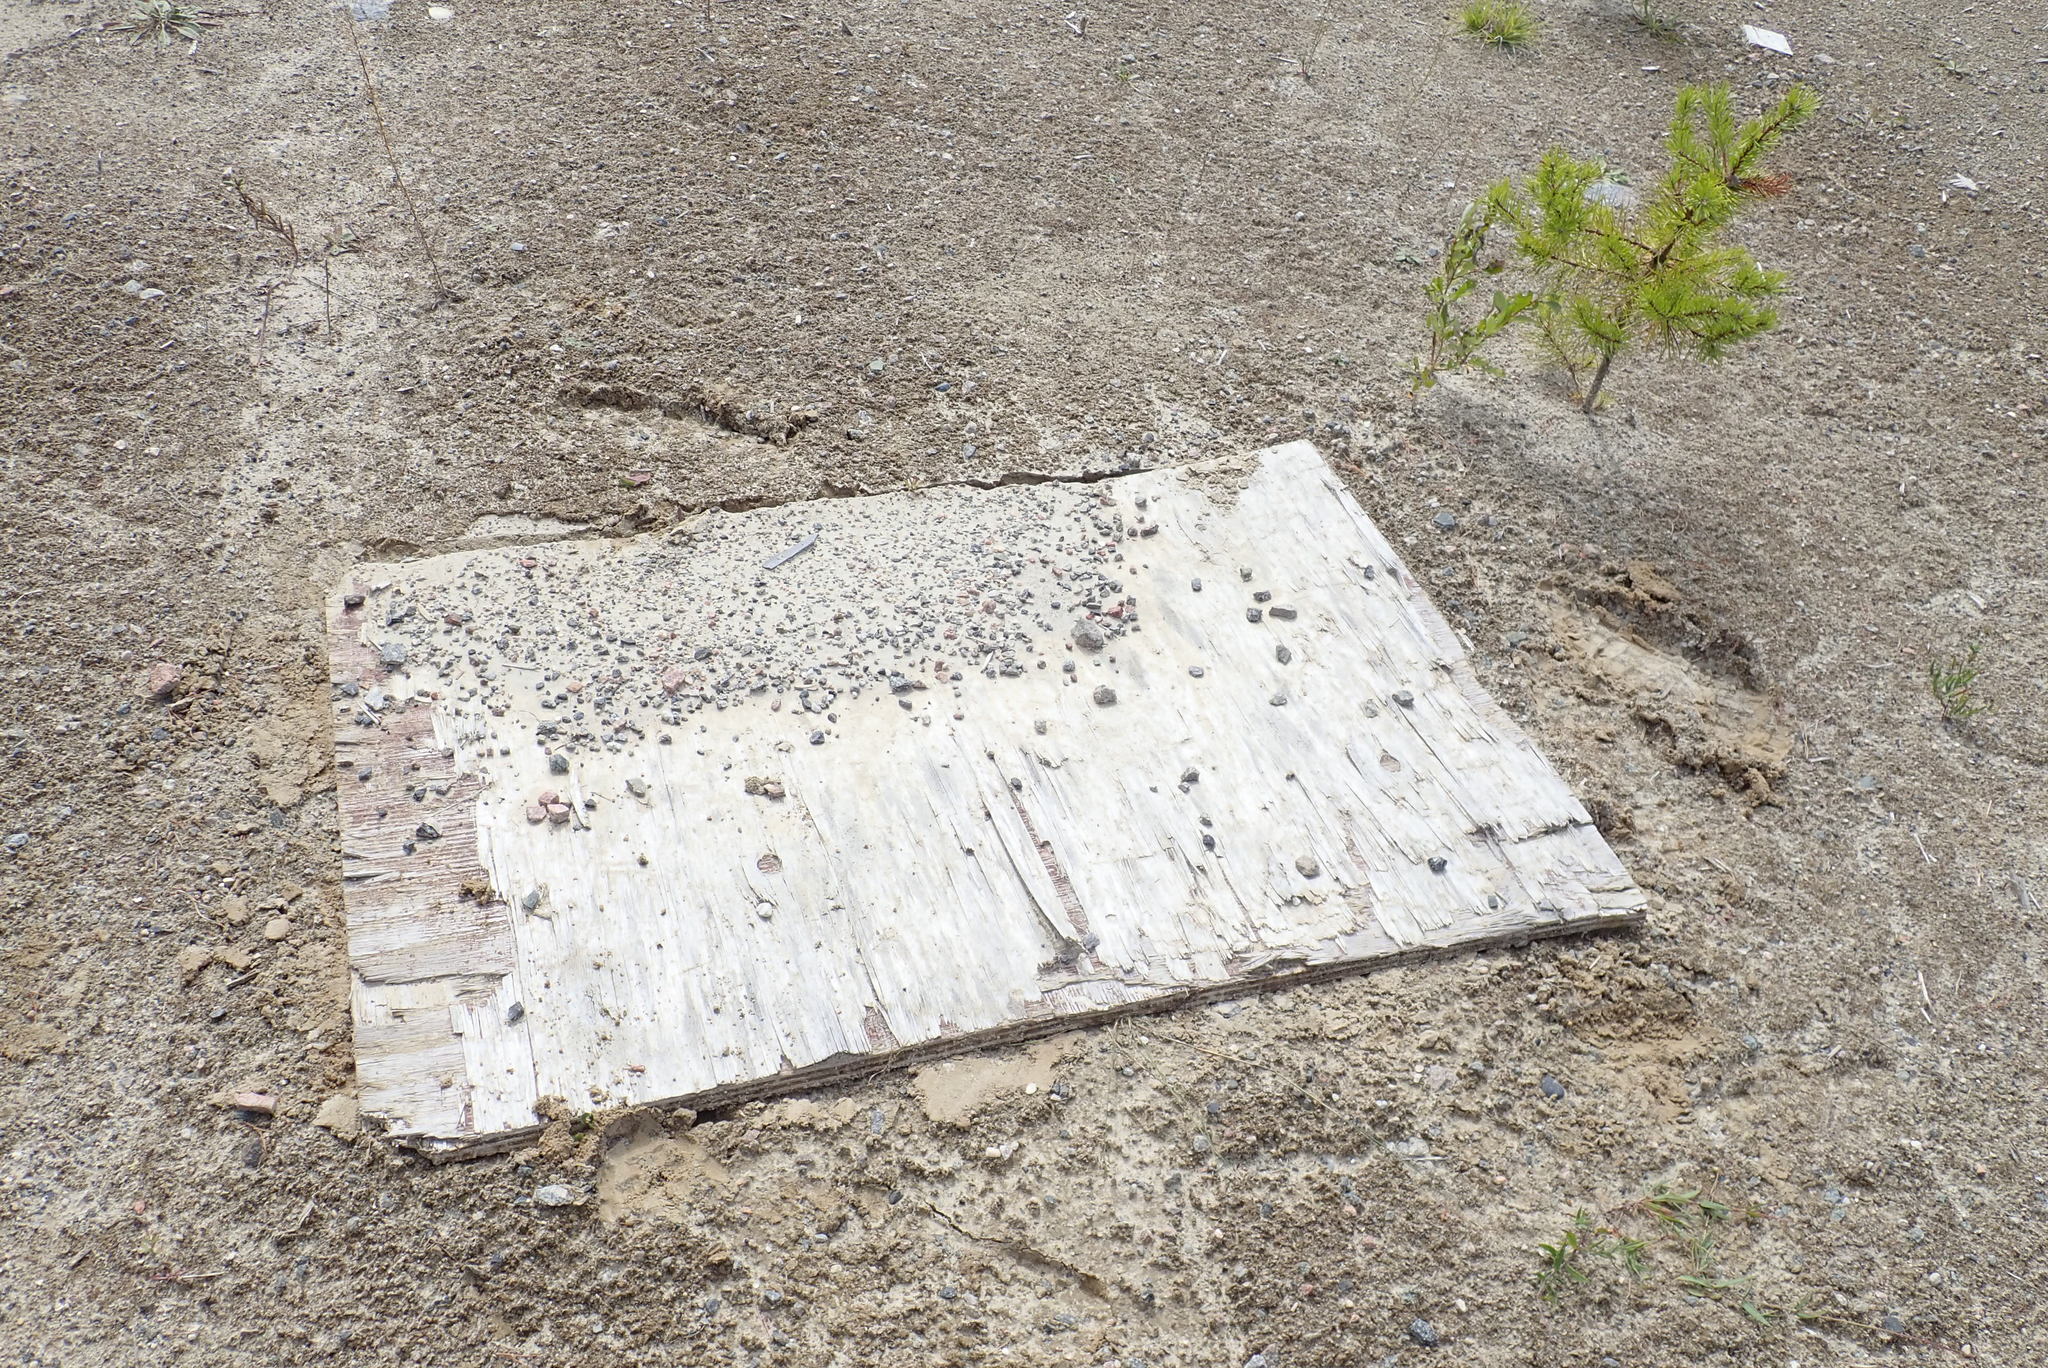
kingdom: Animalia
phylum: Chordata
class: Amphibia
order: Anura
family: Bufonidae
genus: Anaxyrus
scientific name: Anaxyrus americanus
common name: American toad
